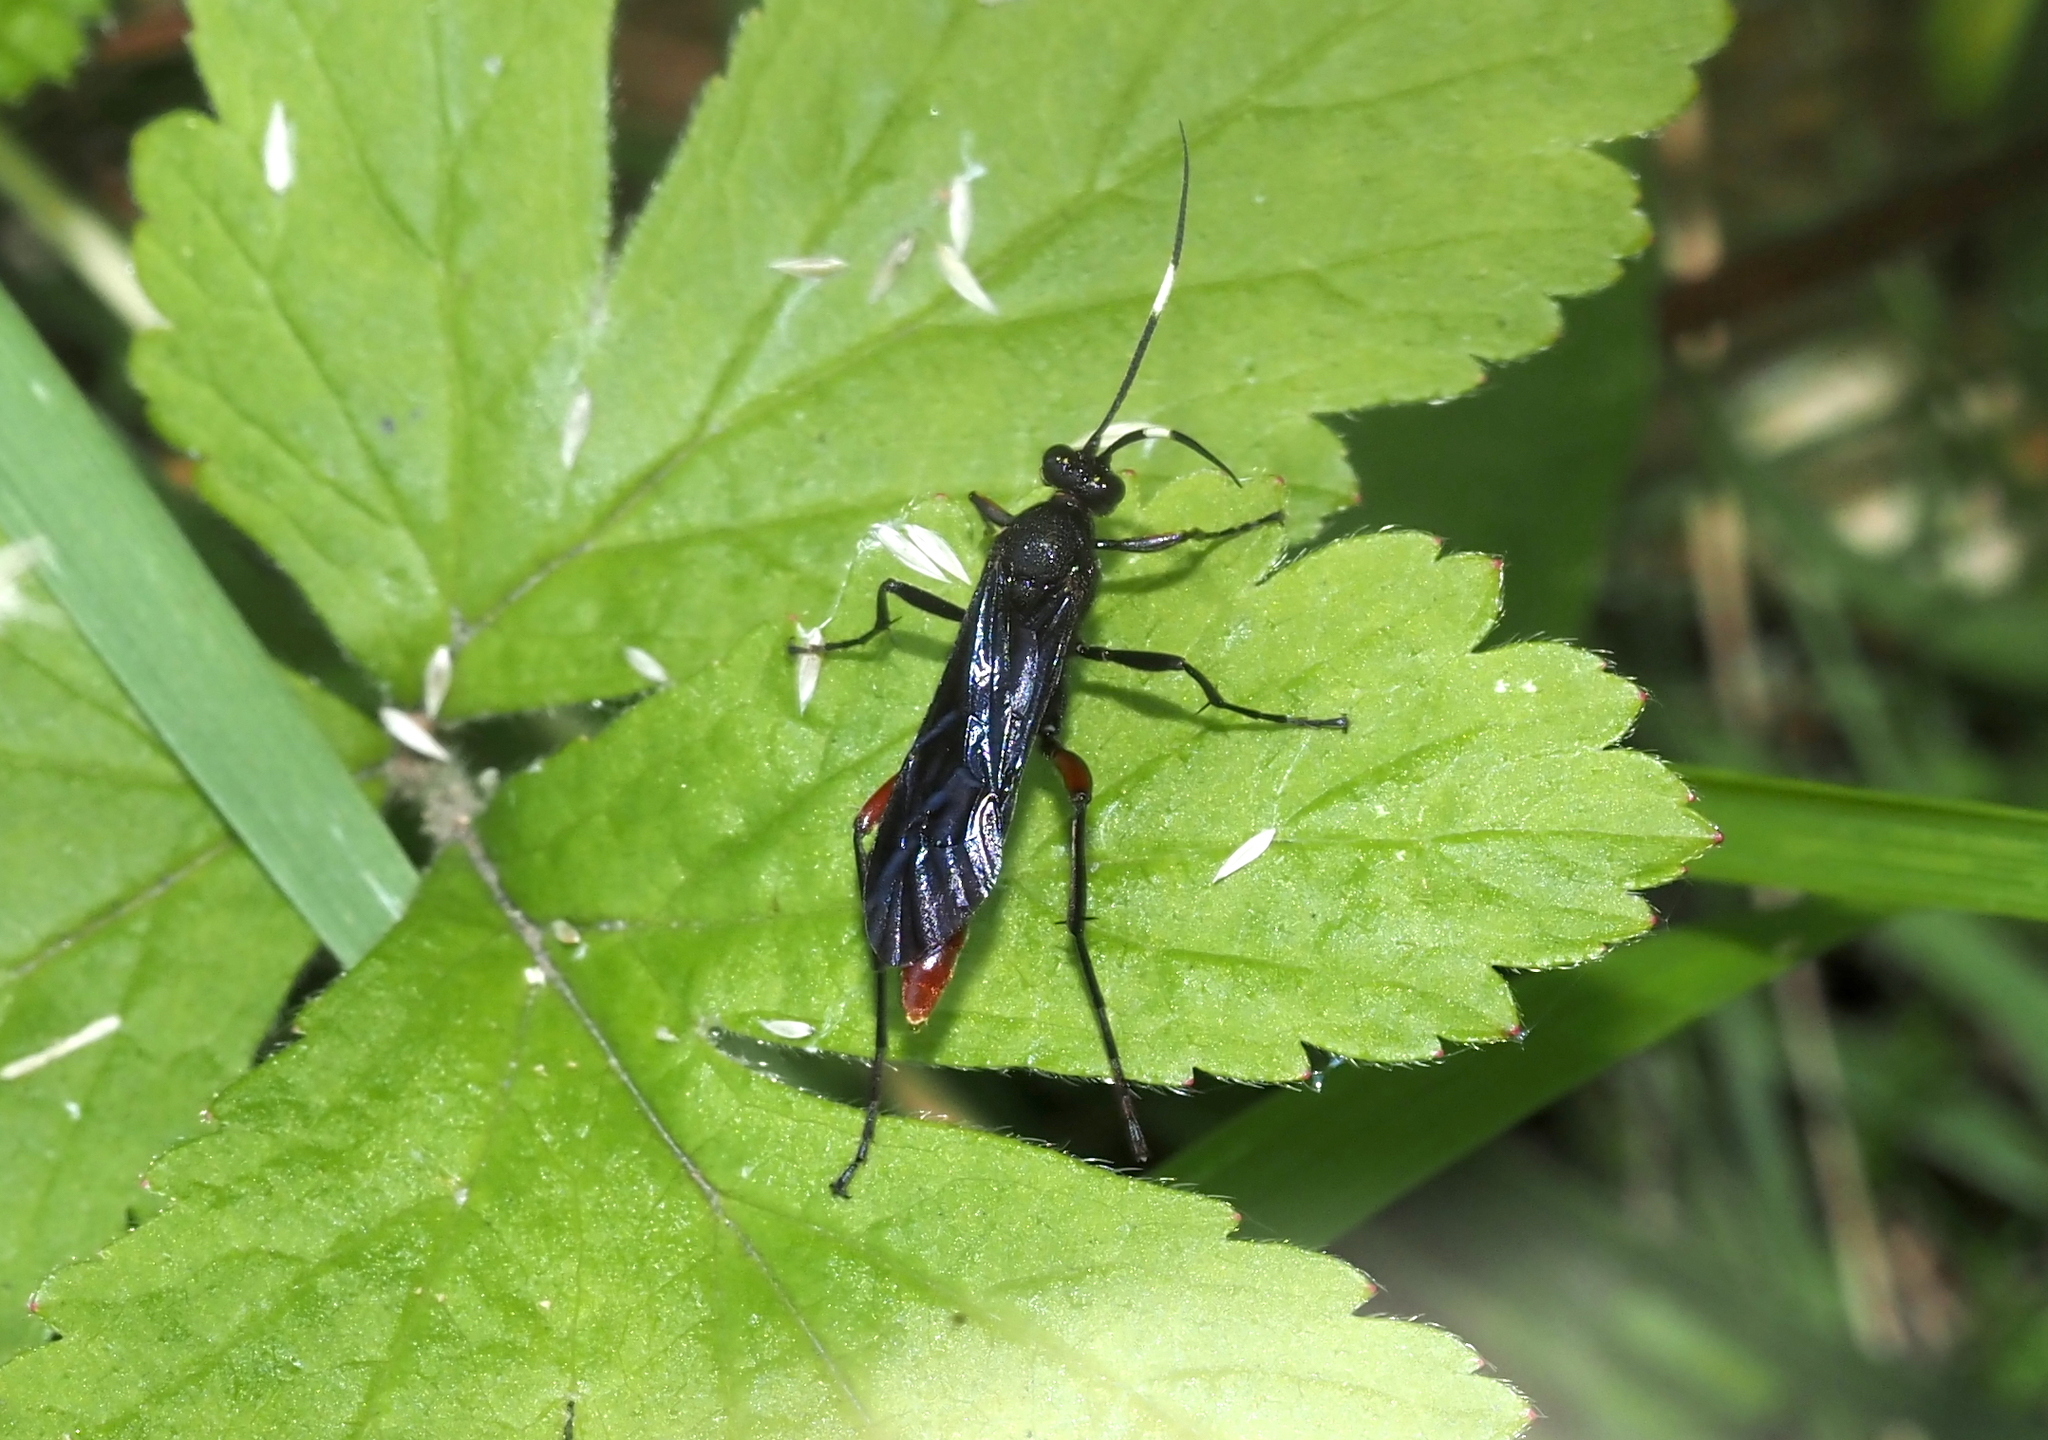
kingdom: Animalia
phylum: Arthropoda
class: Insecta
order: Hymenoptera
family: Ichneumonidae
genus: Limonethe
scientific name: Limonethe maurator
